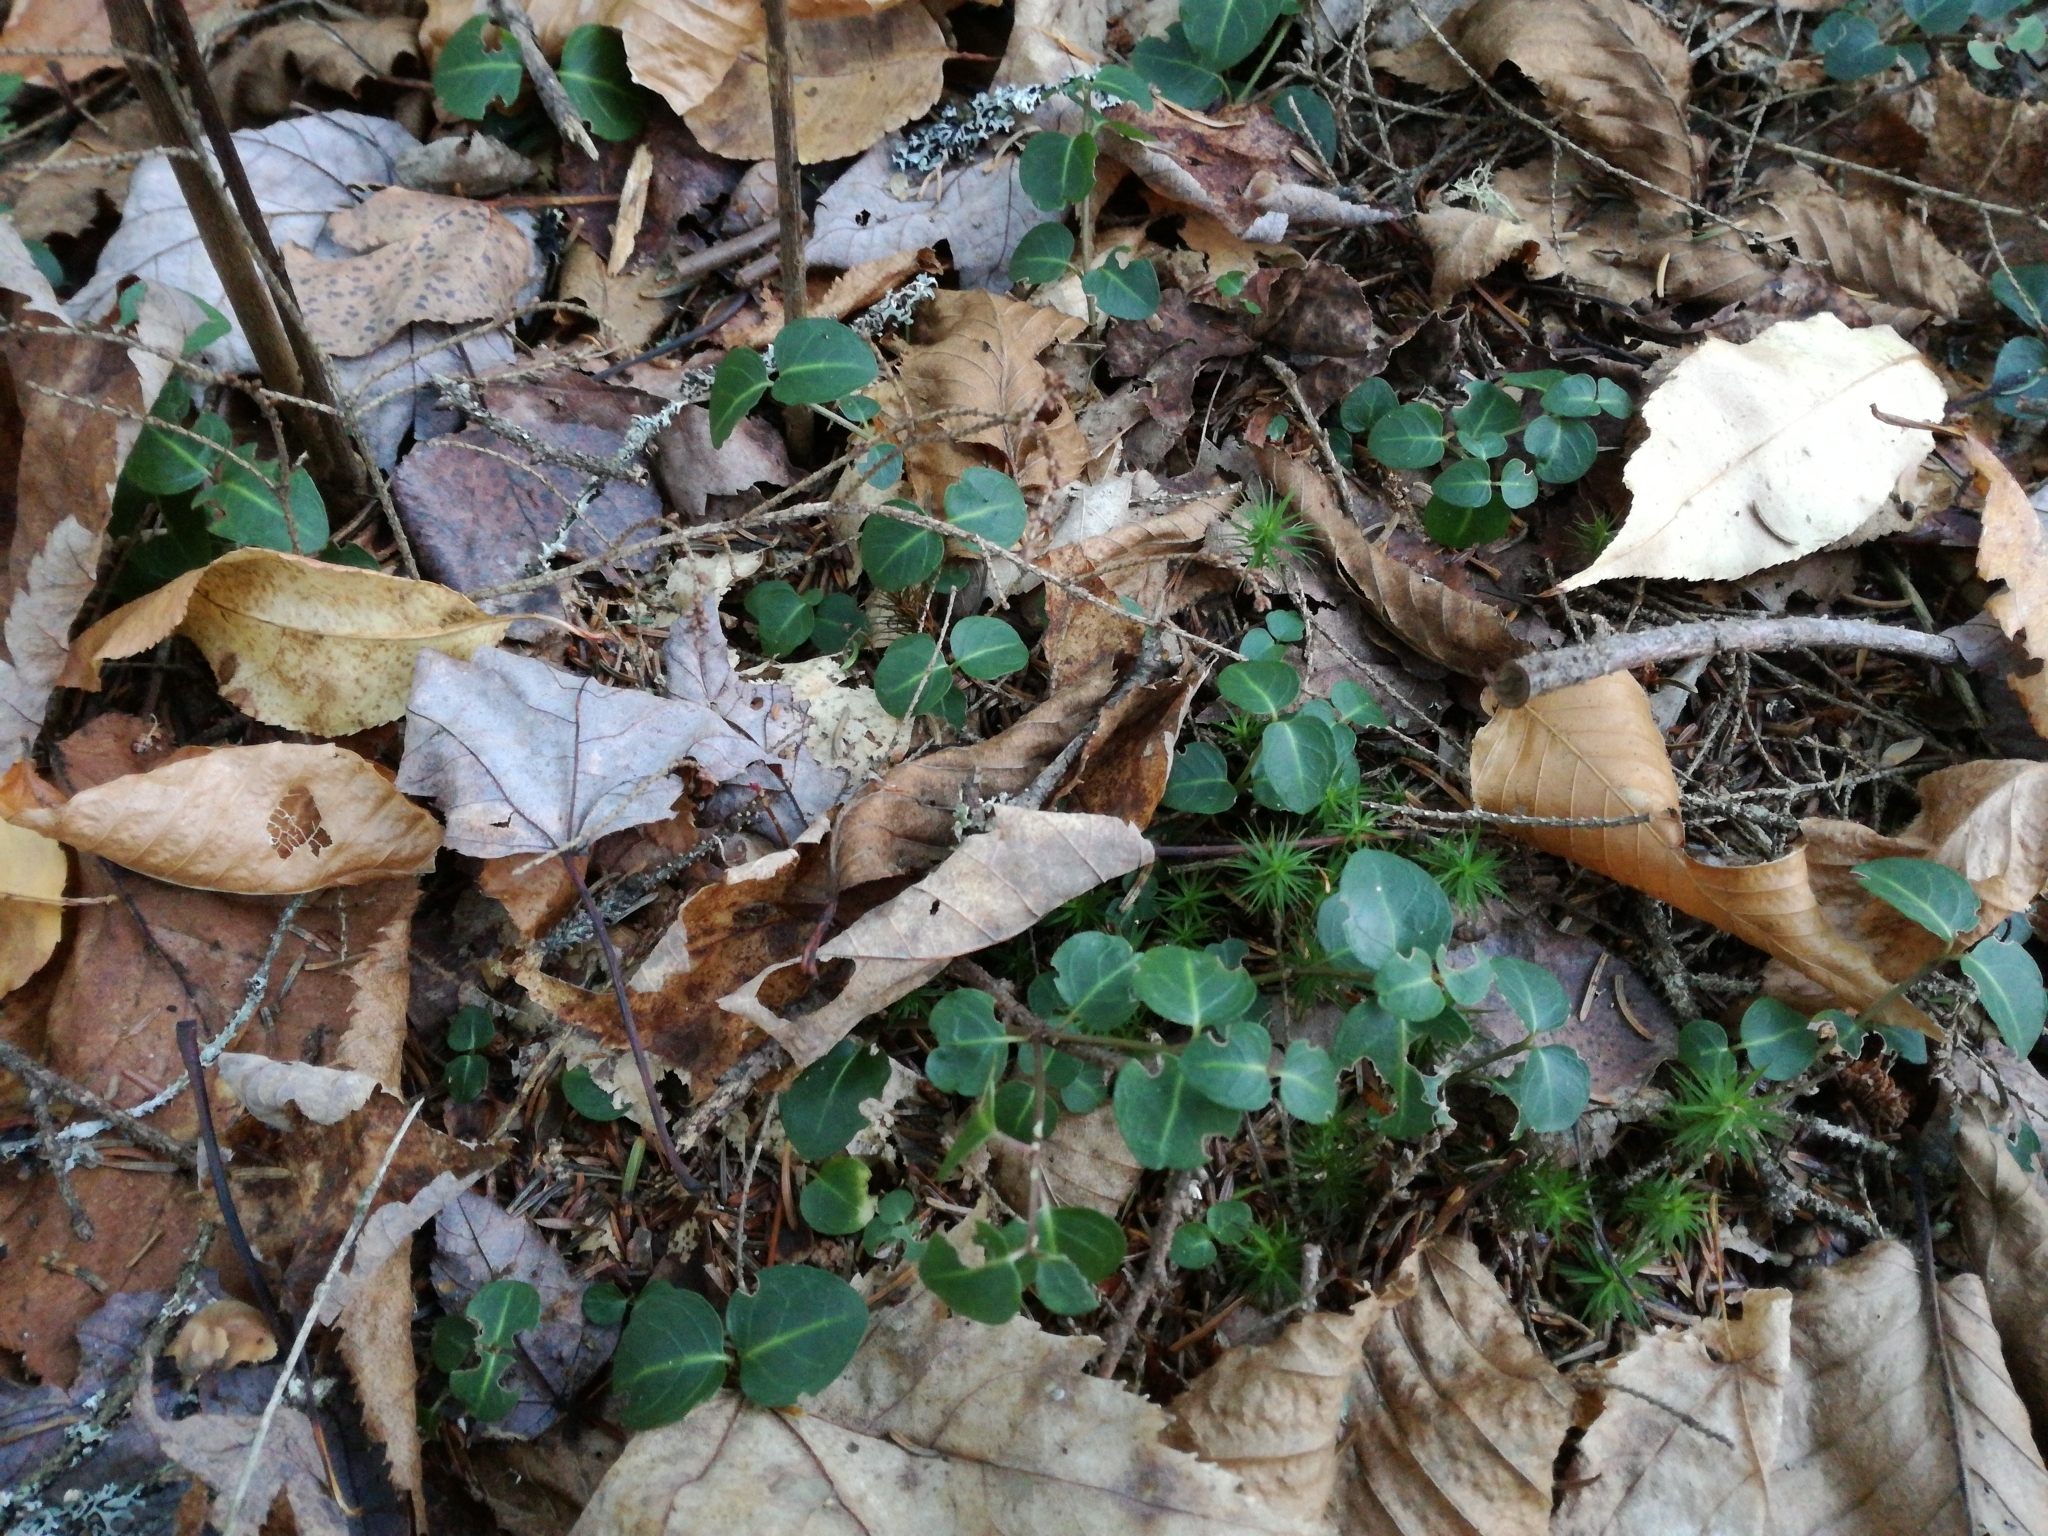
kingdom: Plantae
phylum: Tracheophyta
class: Magnoliopsida
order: Gentianales
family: Rubiaceae
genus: Mitchella
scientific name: Mitchella repens
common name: Partridge-berry
